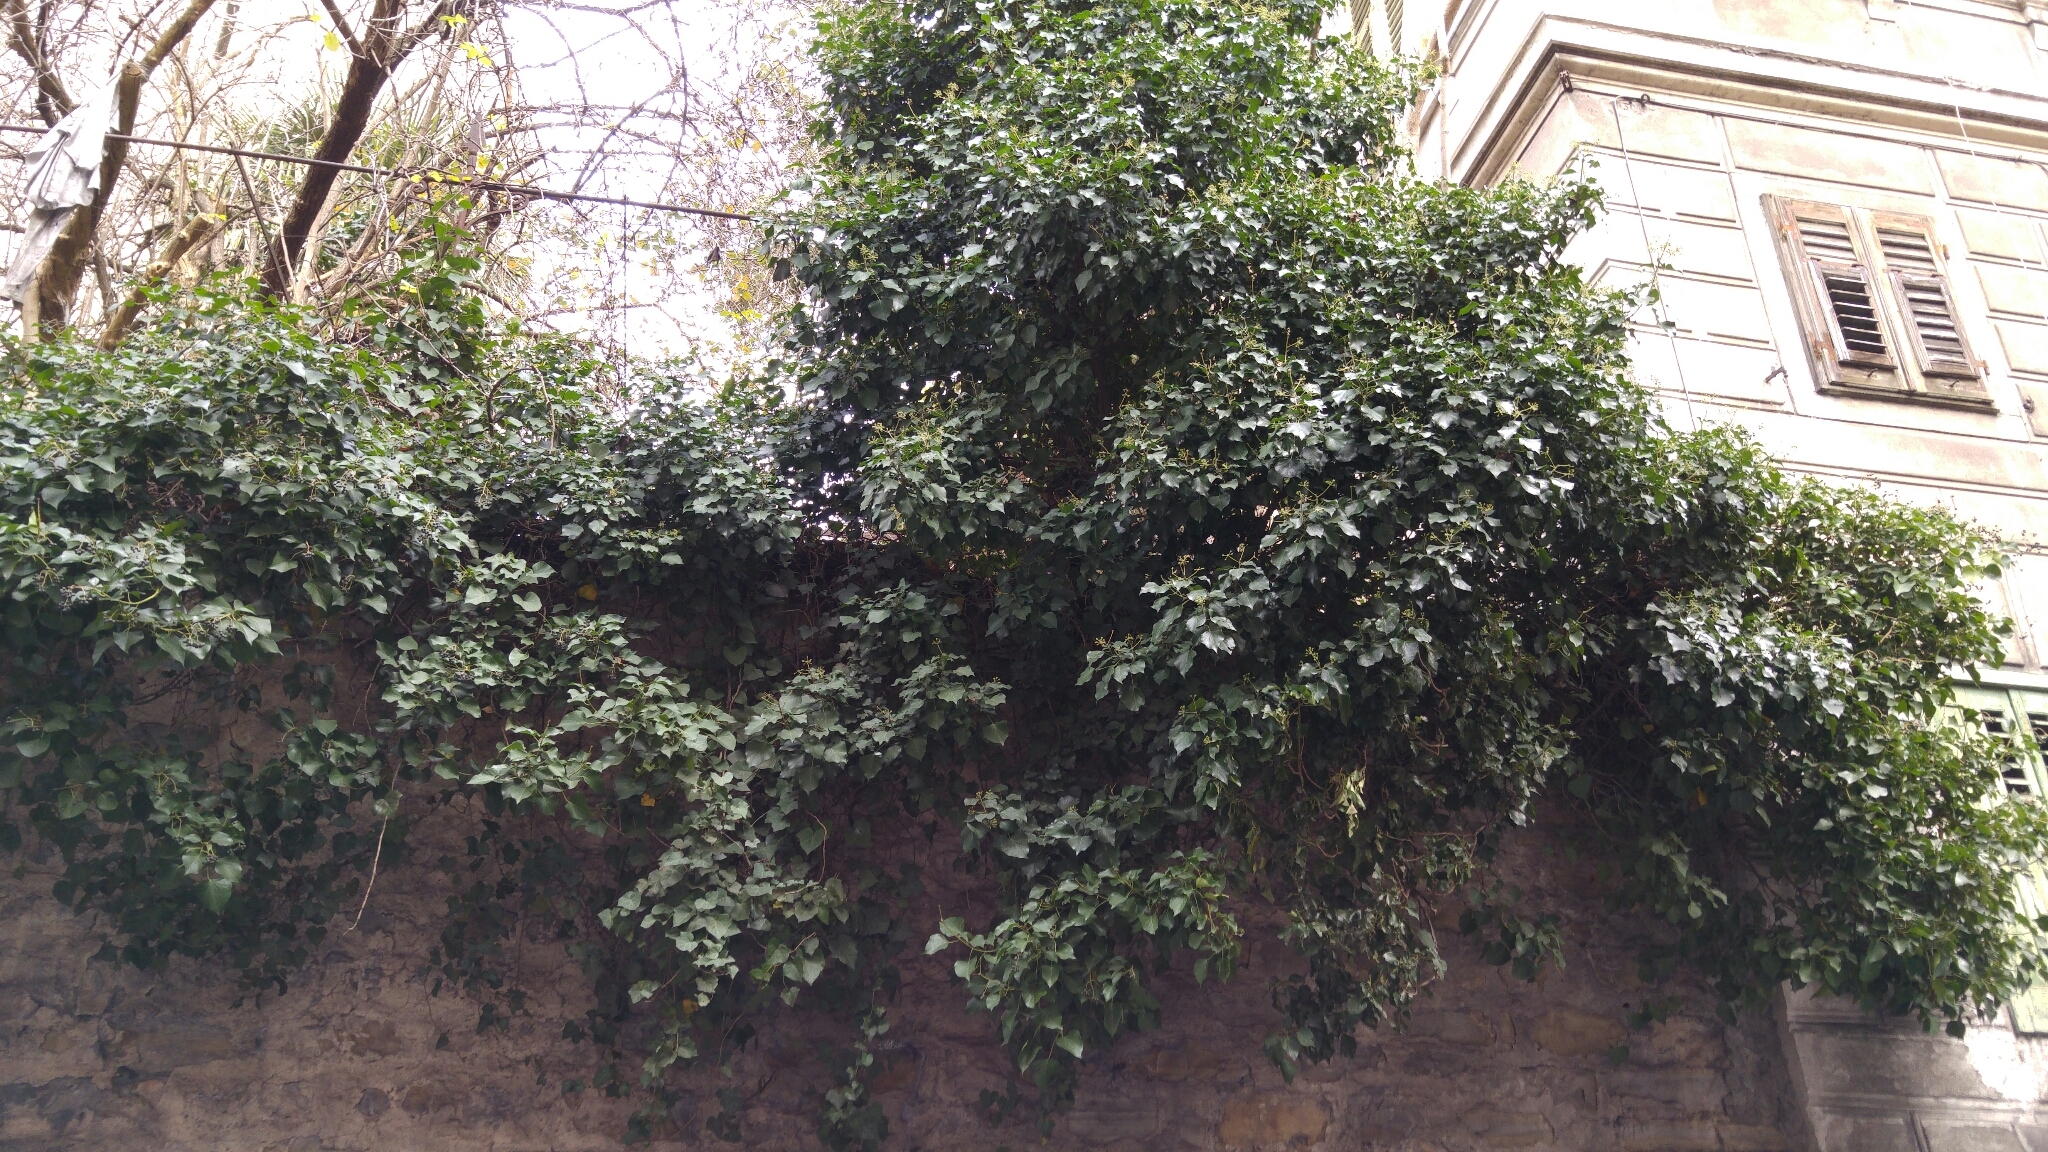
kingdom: Plantae
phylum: Tracheophyta
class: Magnoliopsida
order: Apiales
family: Araliaceae
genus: Hedera
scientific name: Hedera helix
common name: Ivy
